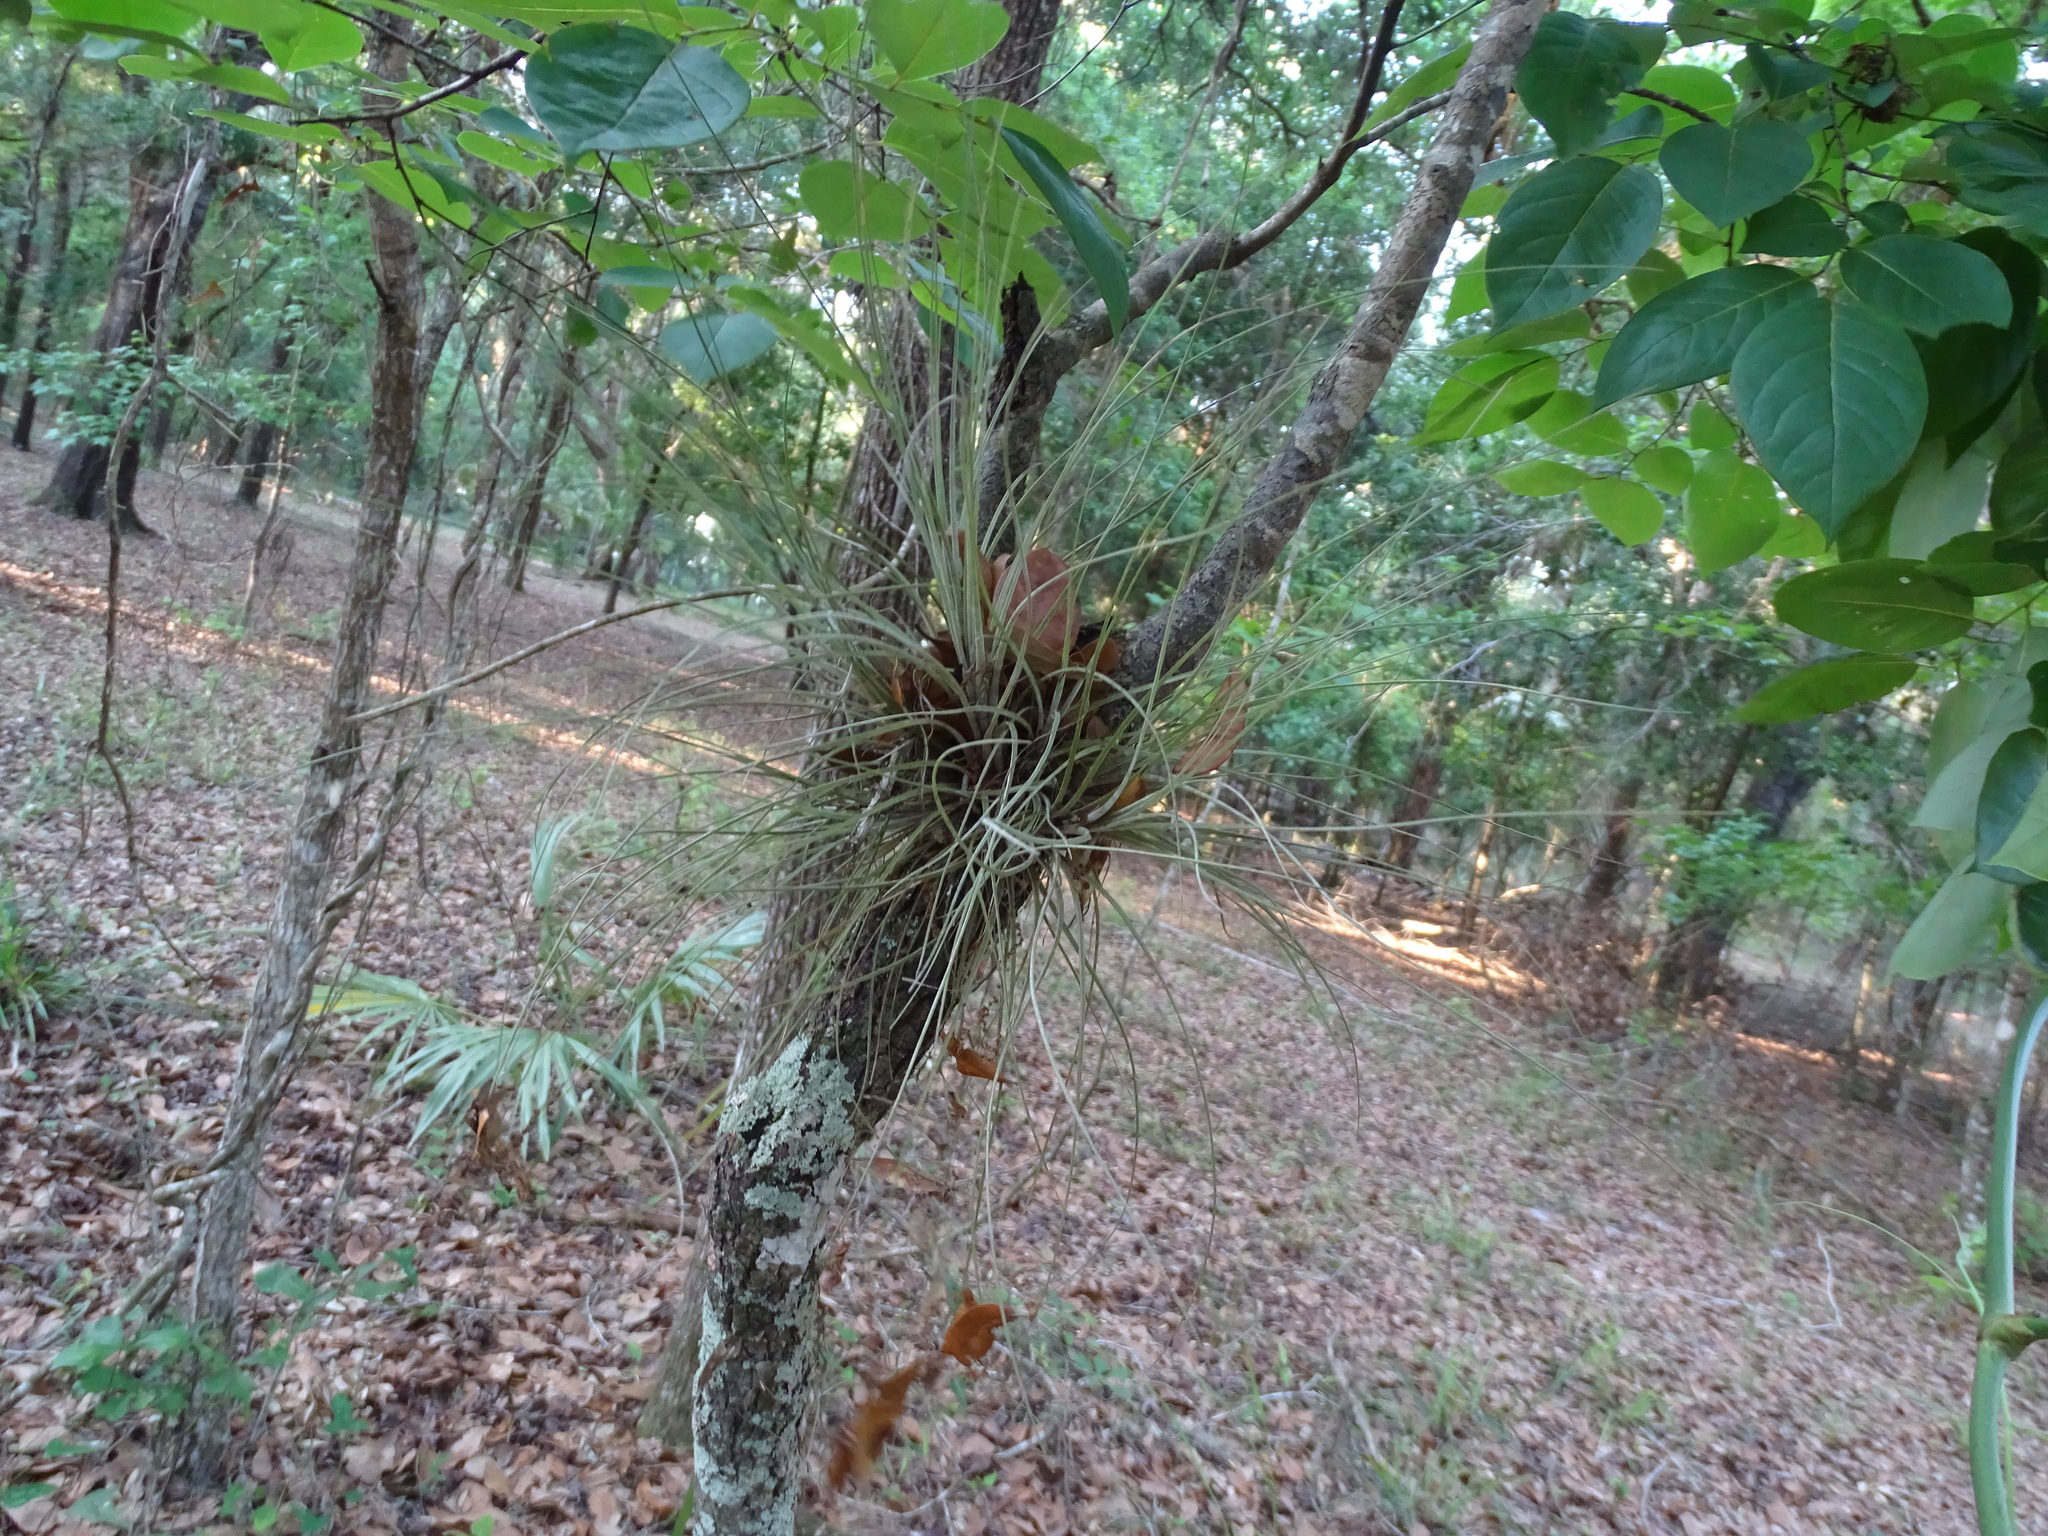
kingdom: Plantae
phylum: Tracheophyta
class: Liliopsida
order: Poales
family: Bromeliaceae
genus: Tillandsia
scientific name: Tillandsia bartramii
